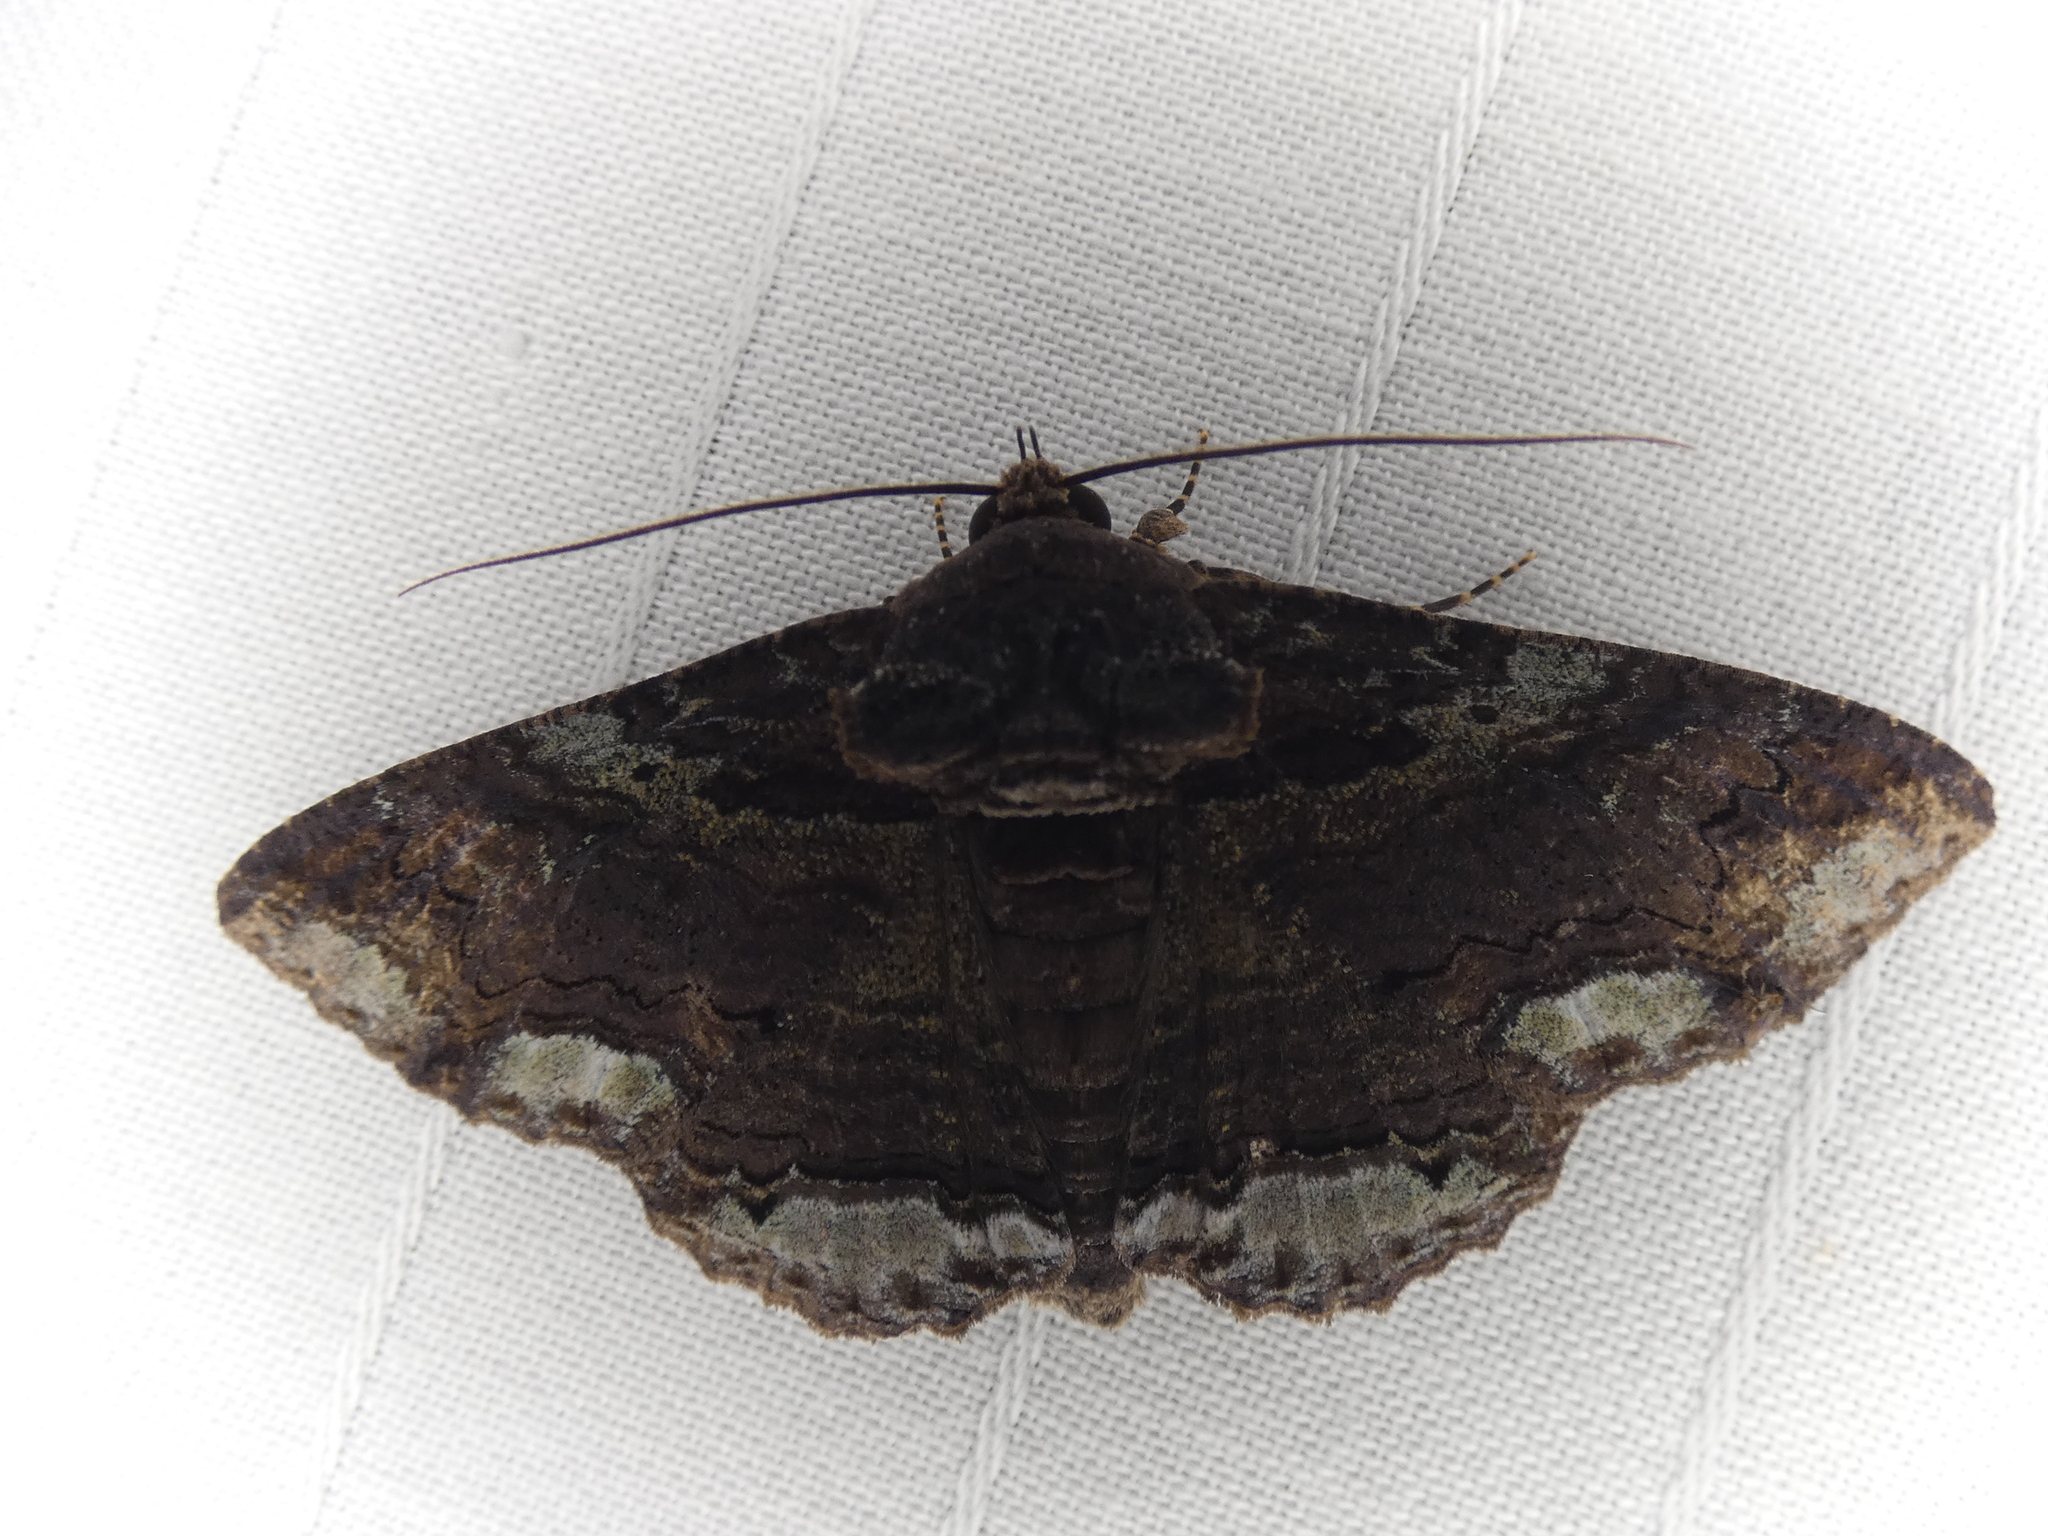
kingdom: Animalia
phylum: Arthropoda
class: Insecta
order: Lepidoptera
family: Erebidae
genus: Zale
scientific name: Zale lunata
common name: Lunate zale moth
